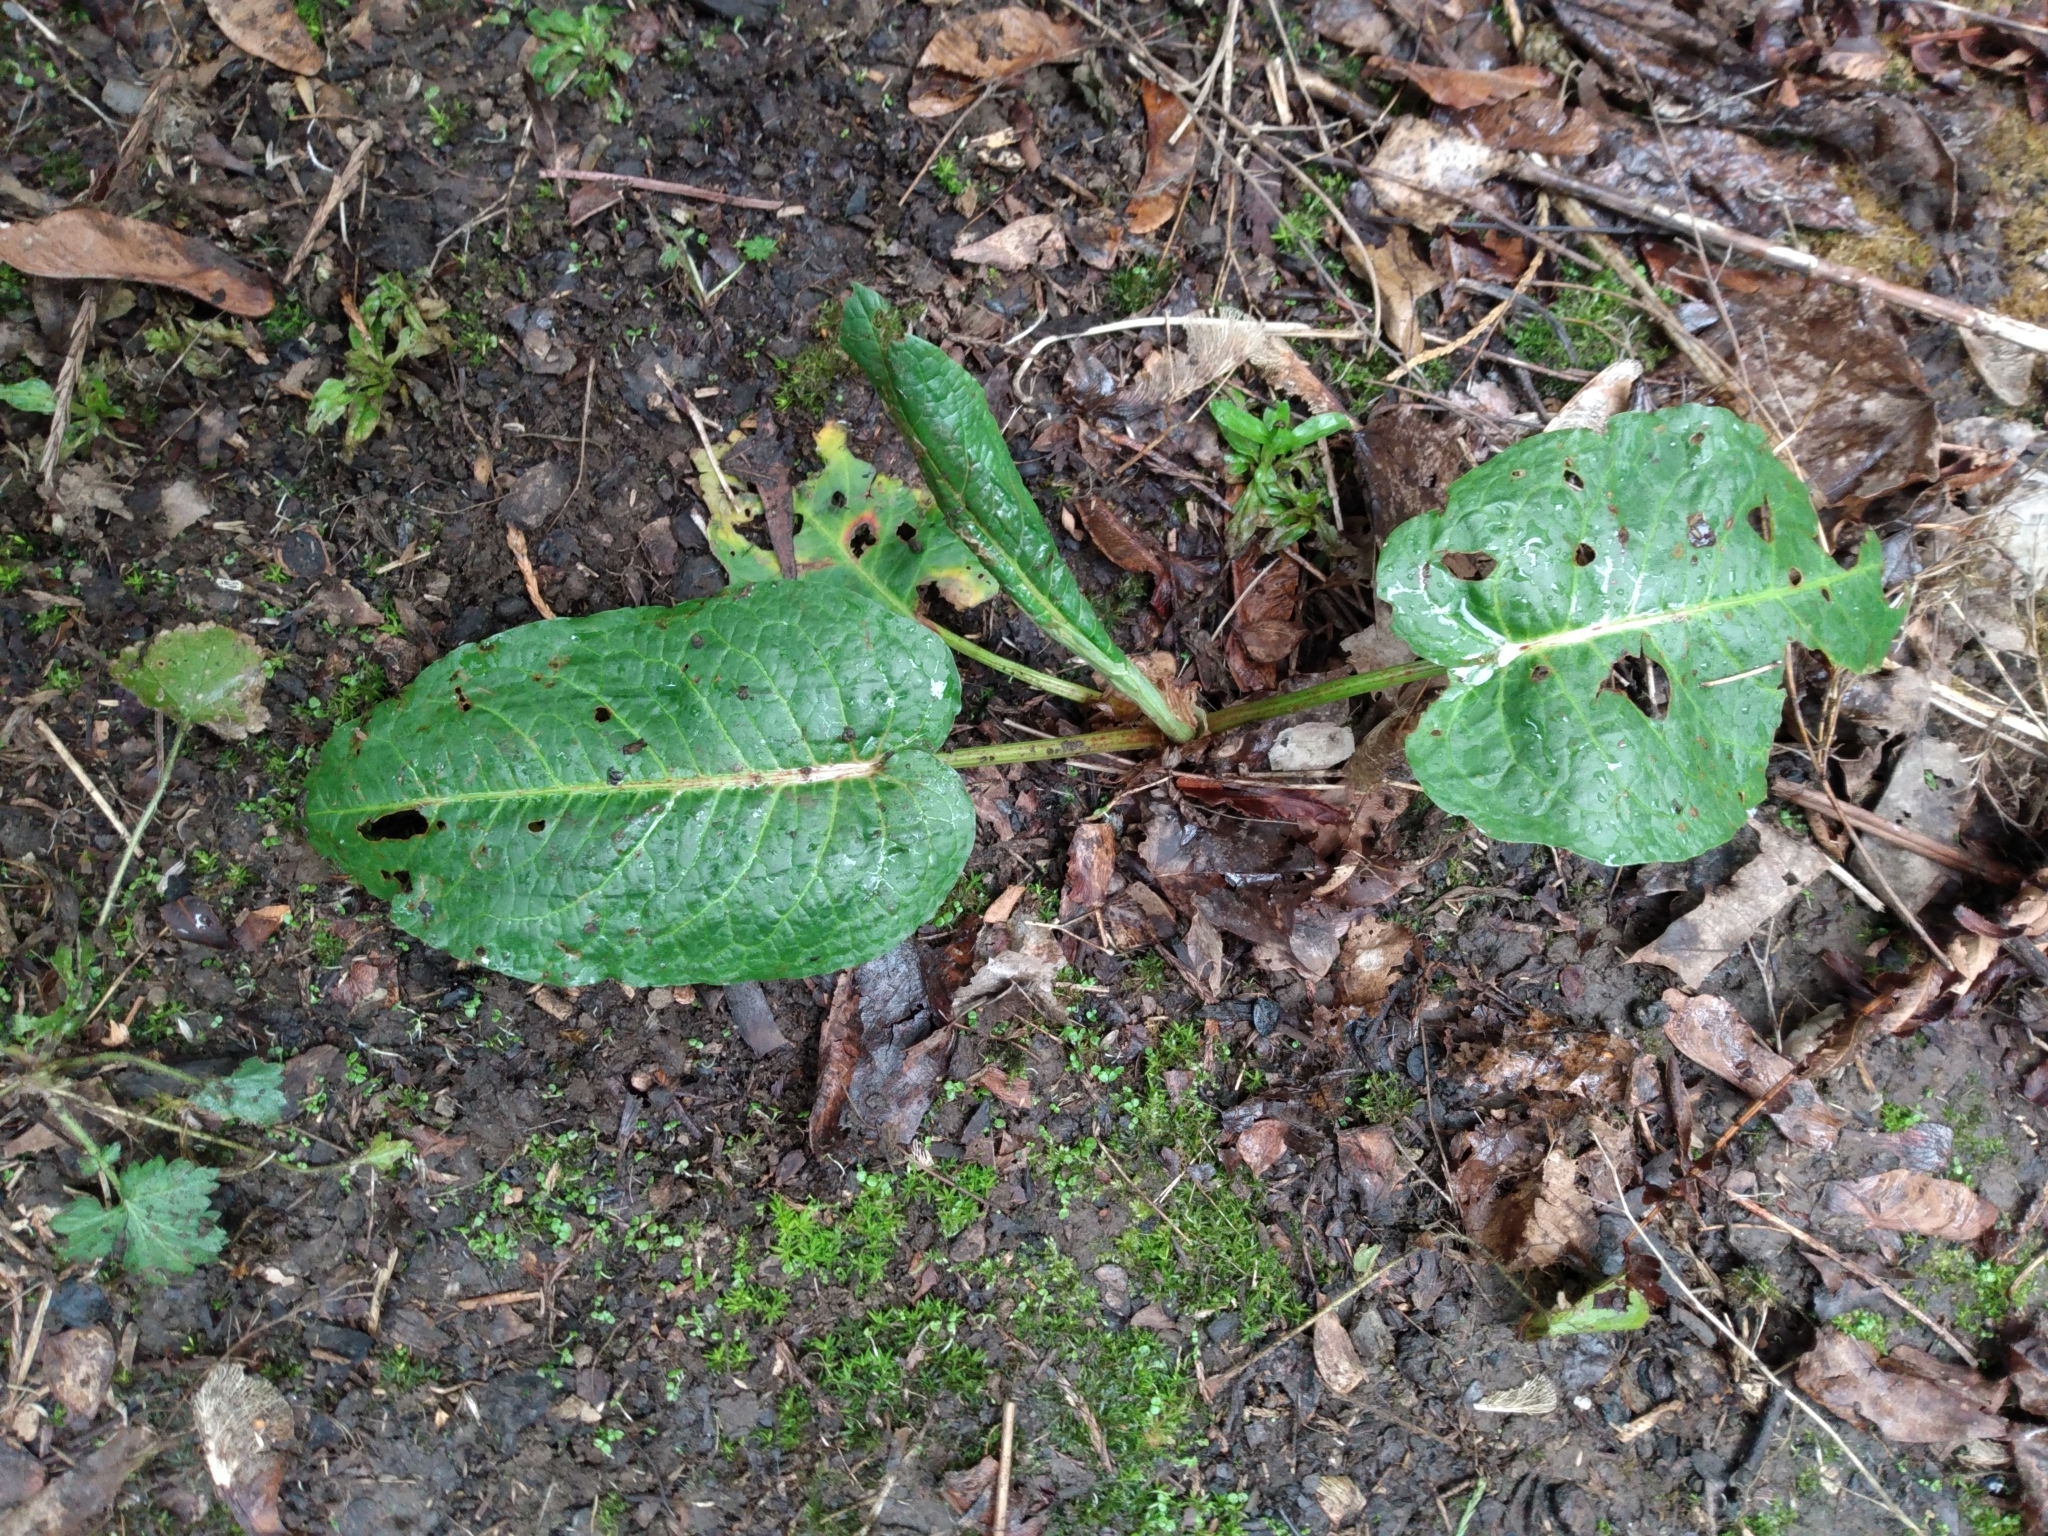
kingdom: Plantae
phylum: Tracheophyta
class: Magnoliopsida
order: Caryophyllales
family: Polygonaceae
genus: Rumex
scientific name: Rumex obtusifolius
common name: Bitter dock
